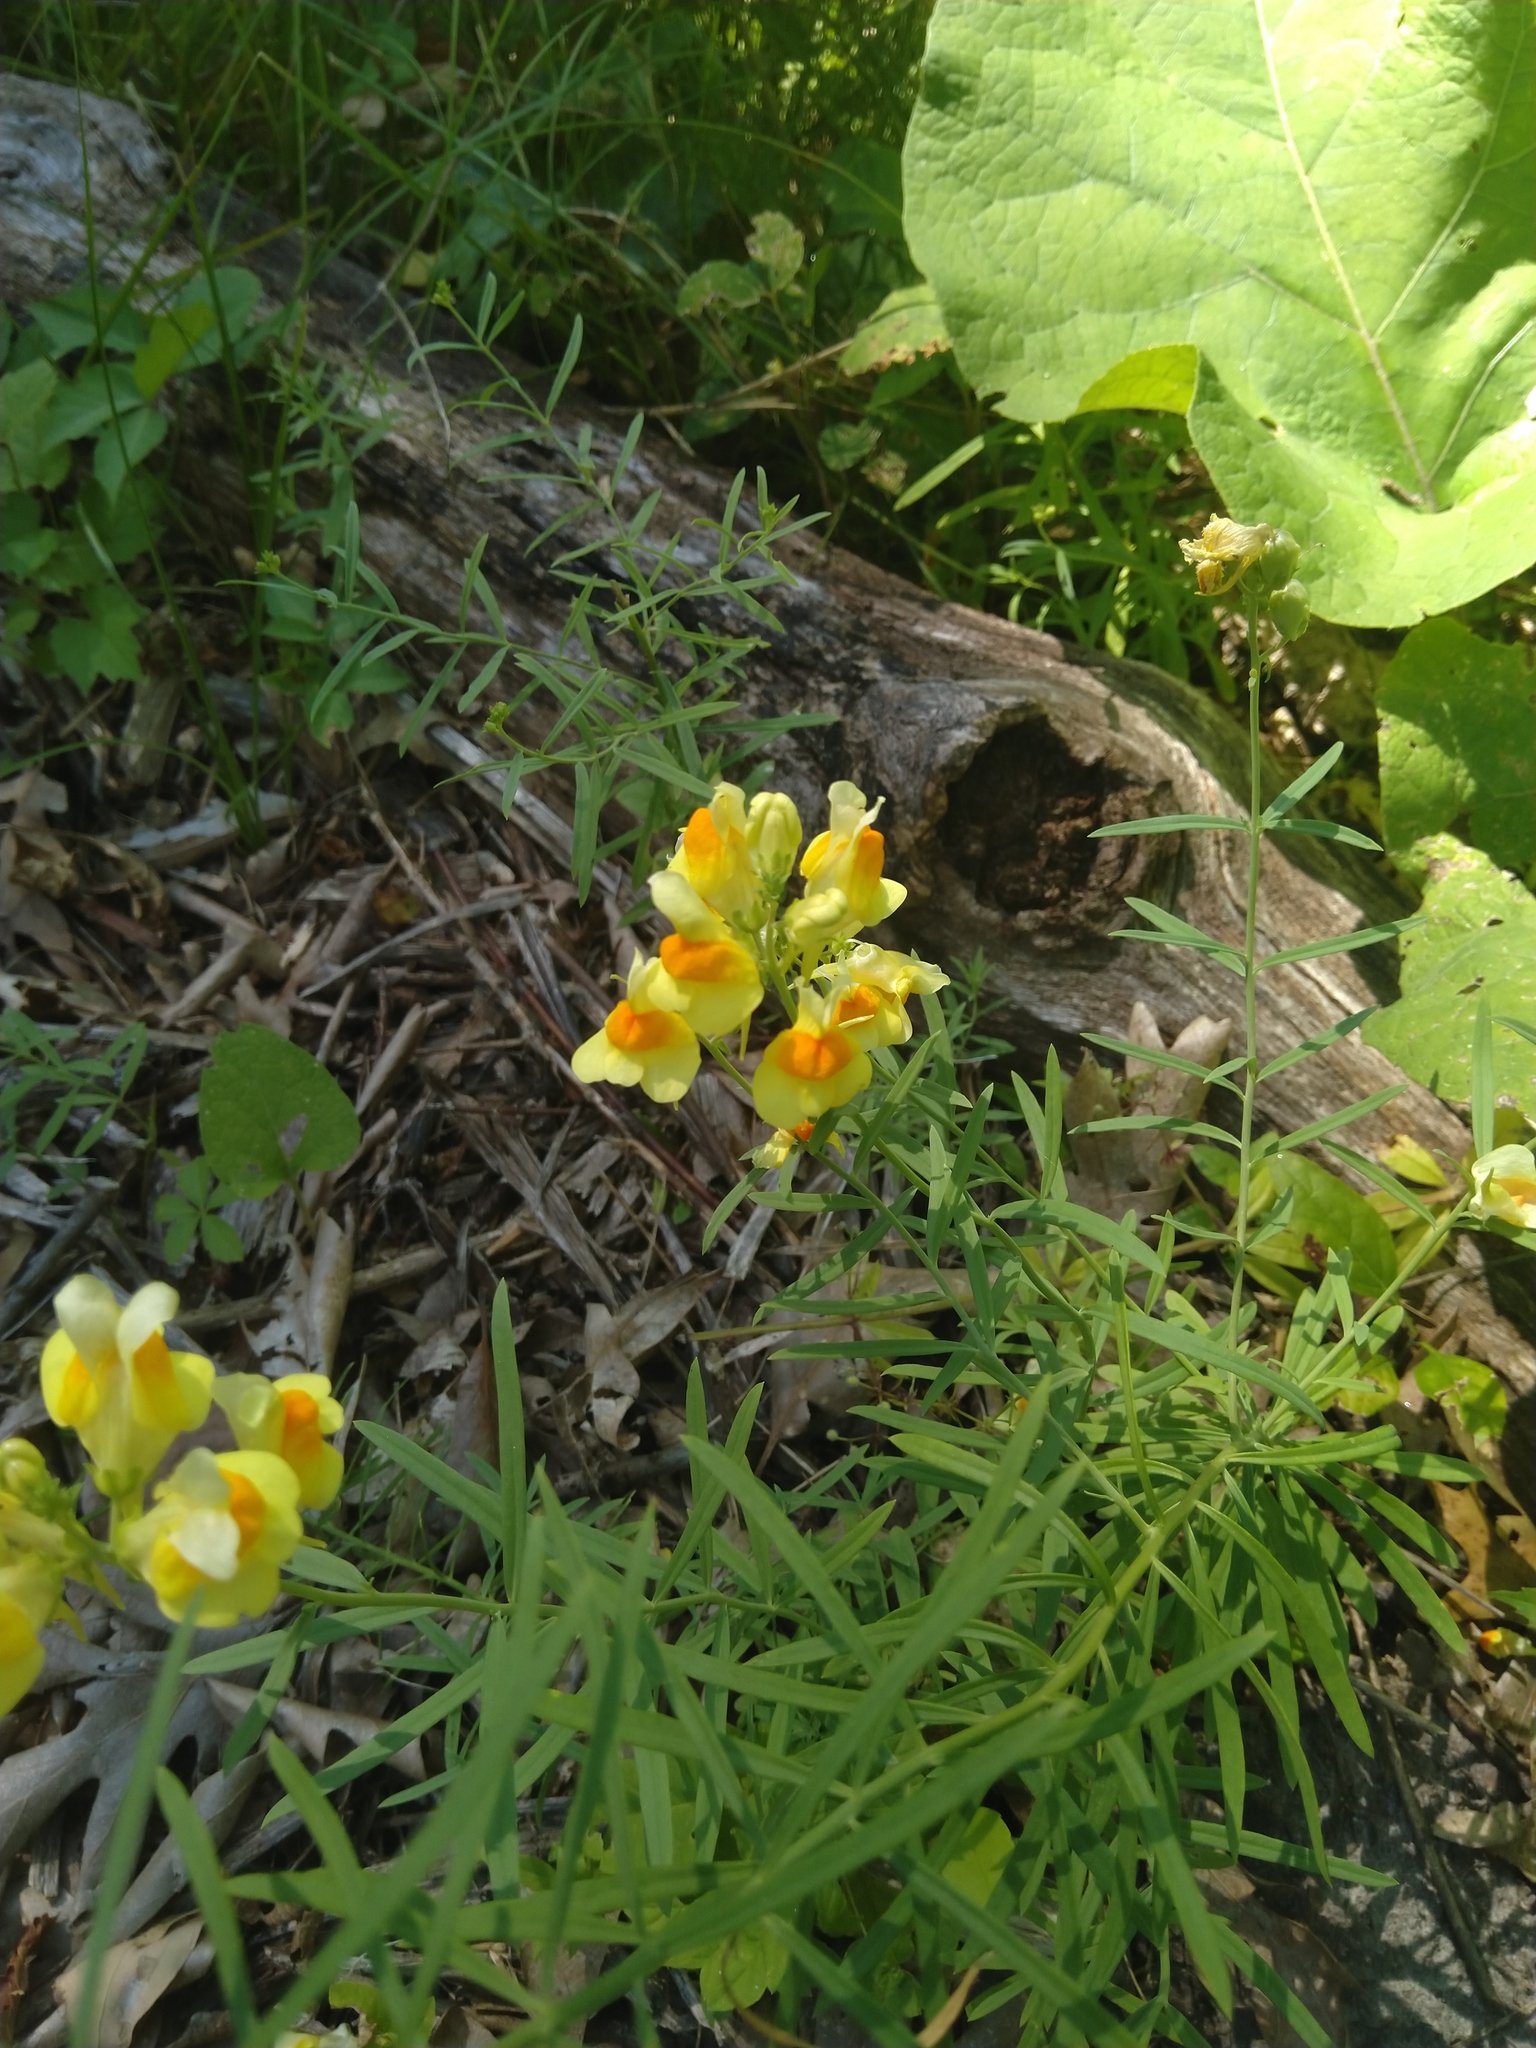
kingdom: Plantae
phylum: Tracheophyta
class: Magnoliopsida
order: Lamiales
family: Plantaginaceae
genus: Linaria
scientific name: Linaria vulgaris
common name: Butter and eggs
